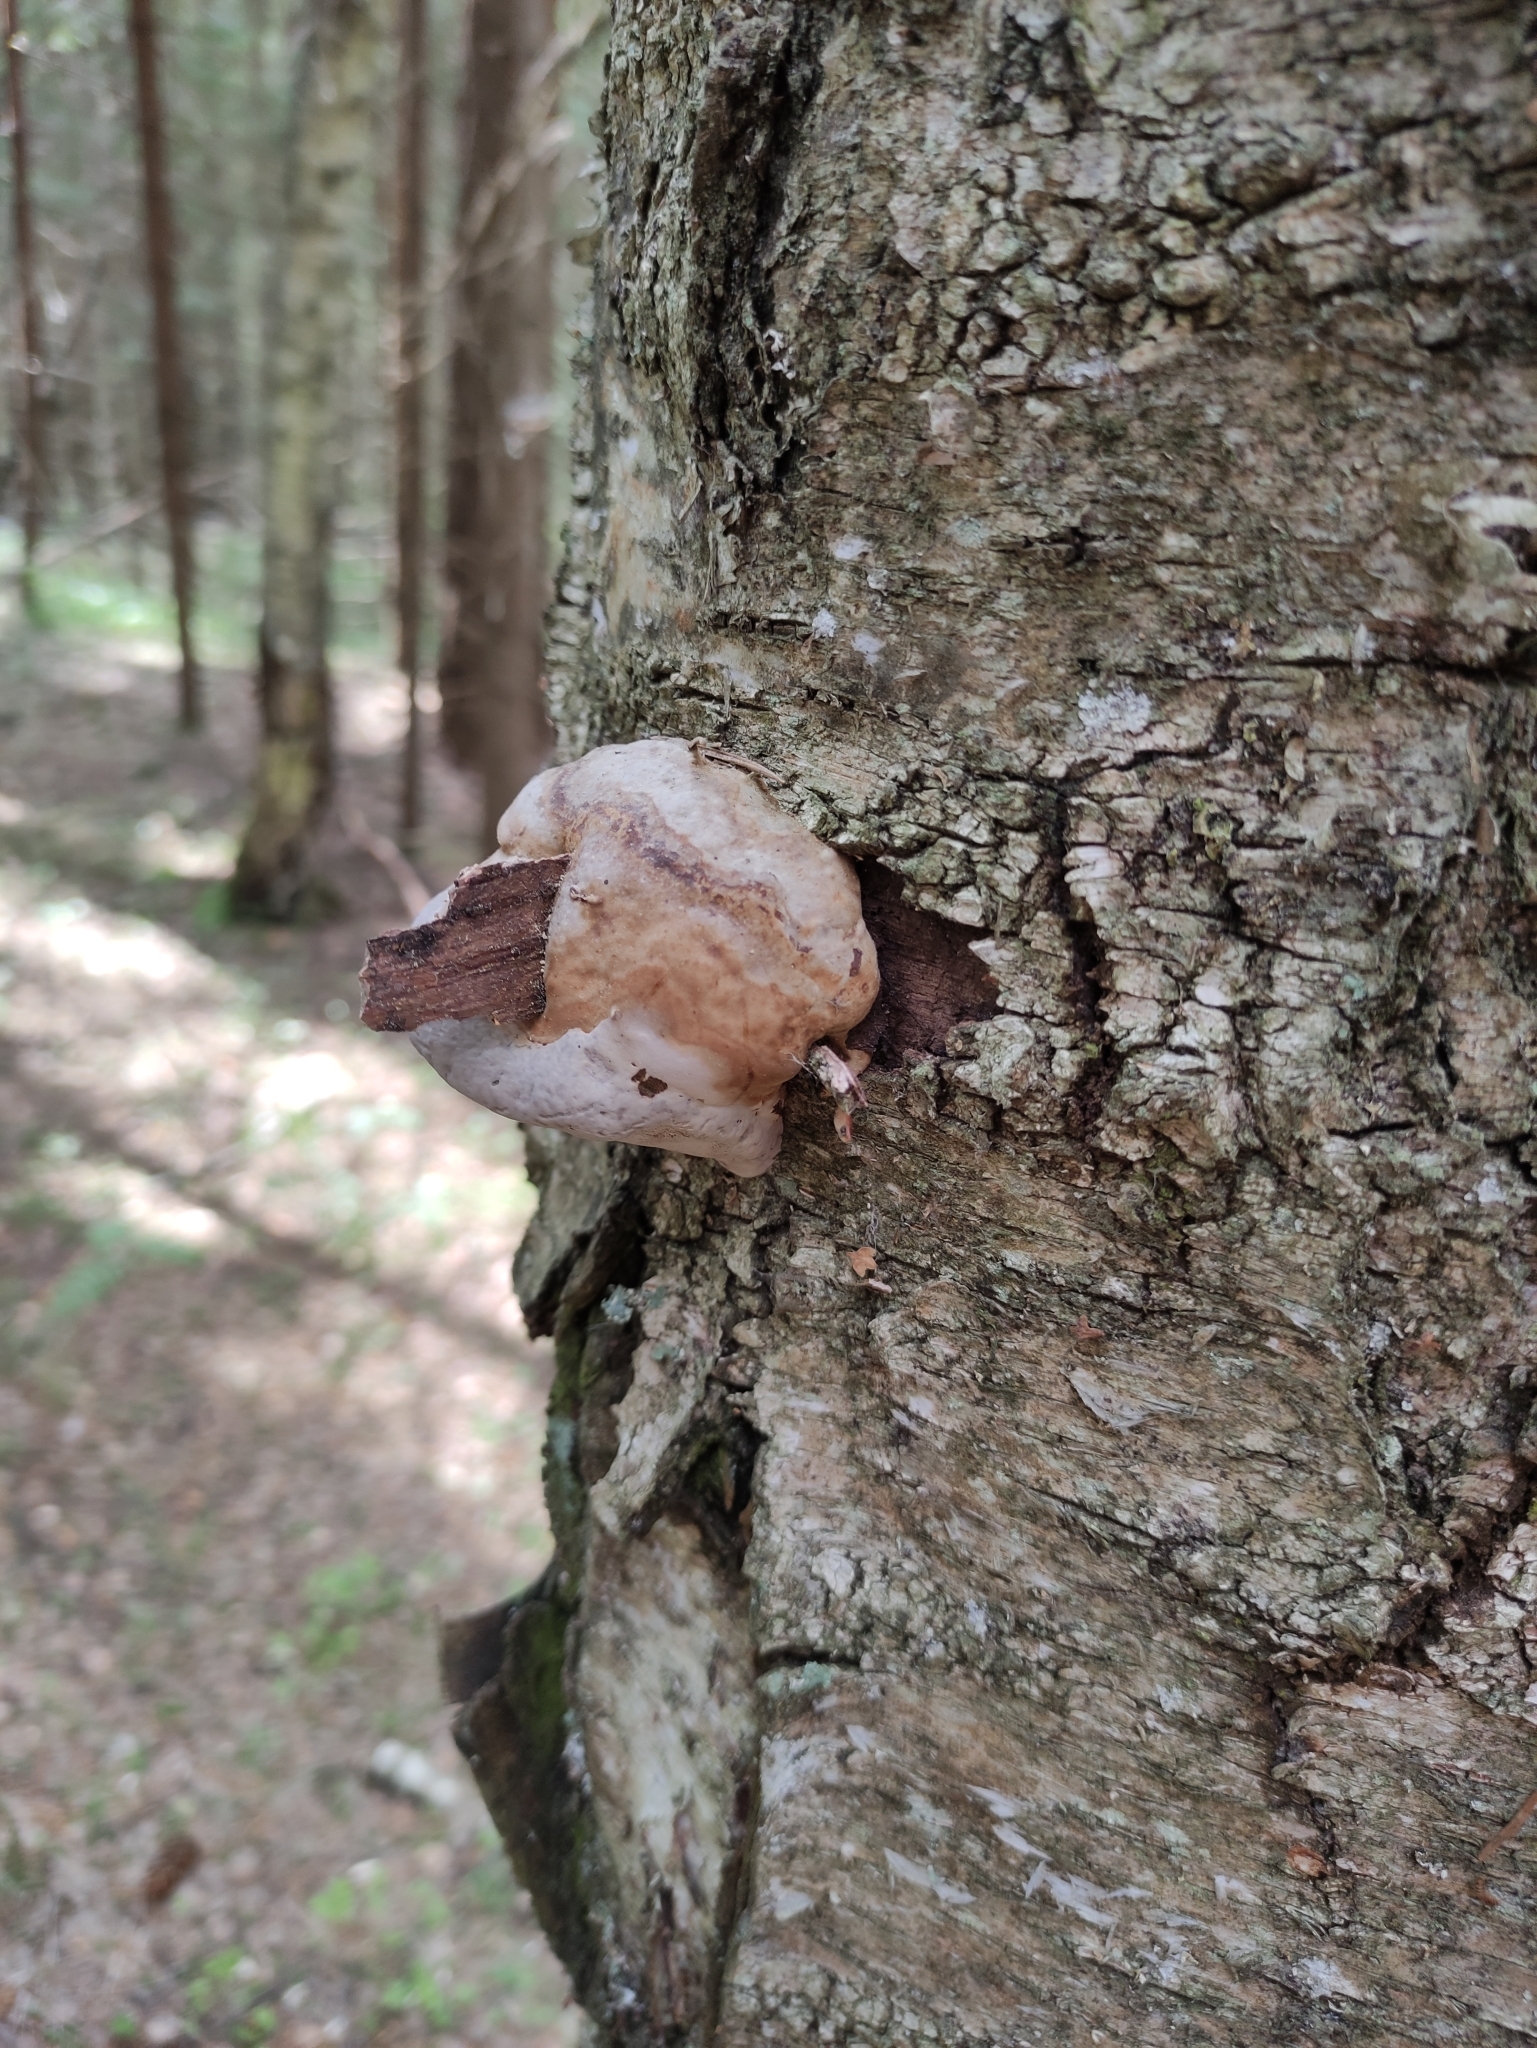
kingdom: Fungi
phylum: Basidiomycota
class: Agaricomycetes
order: Polyporales
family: Polyporaceae
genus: Fomes
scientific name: Fomes fomentarius
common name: Hoof fungus
